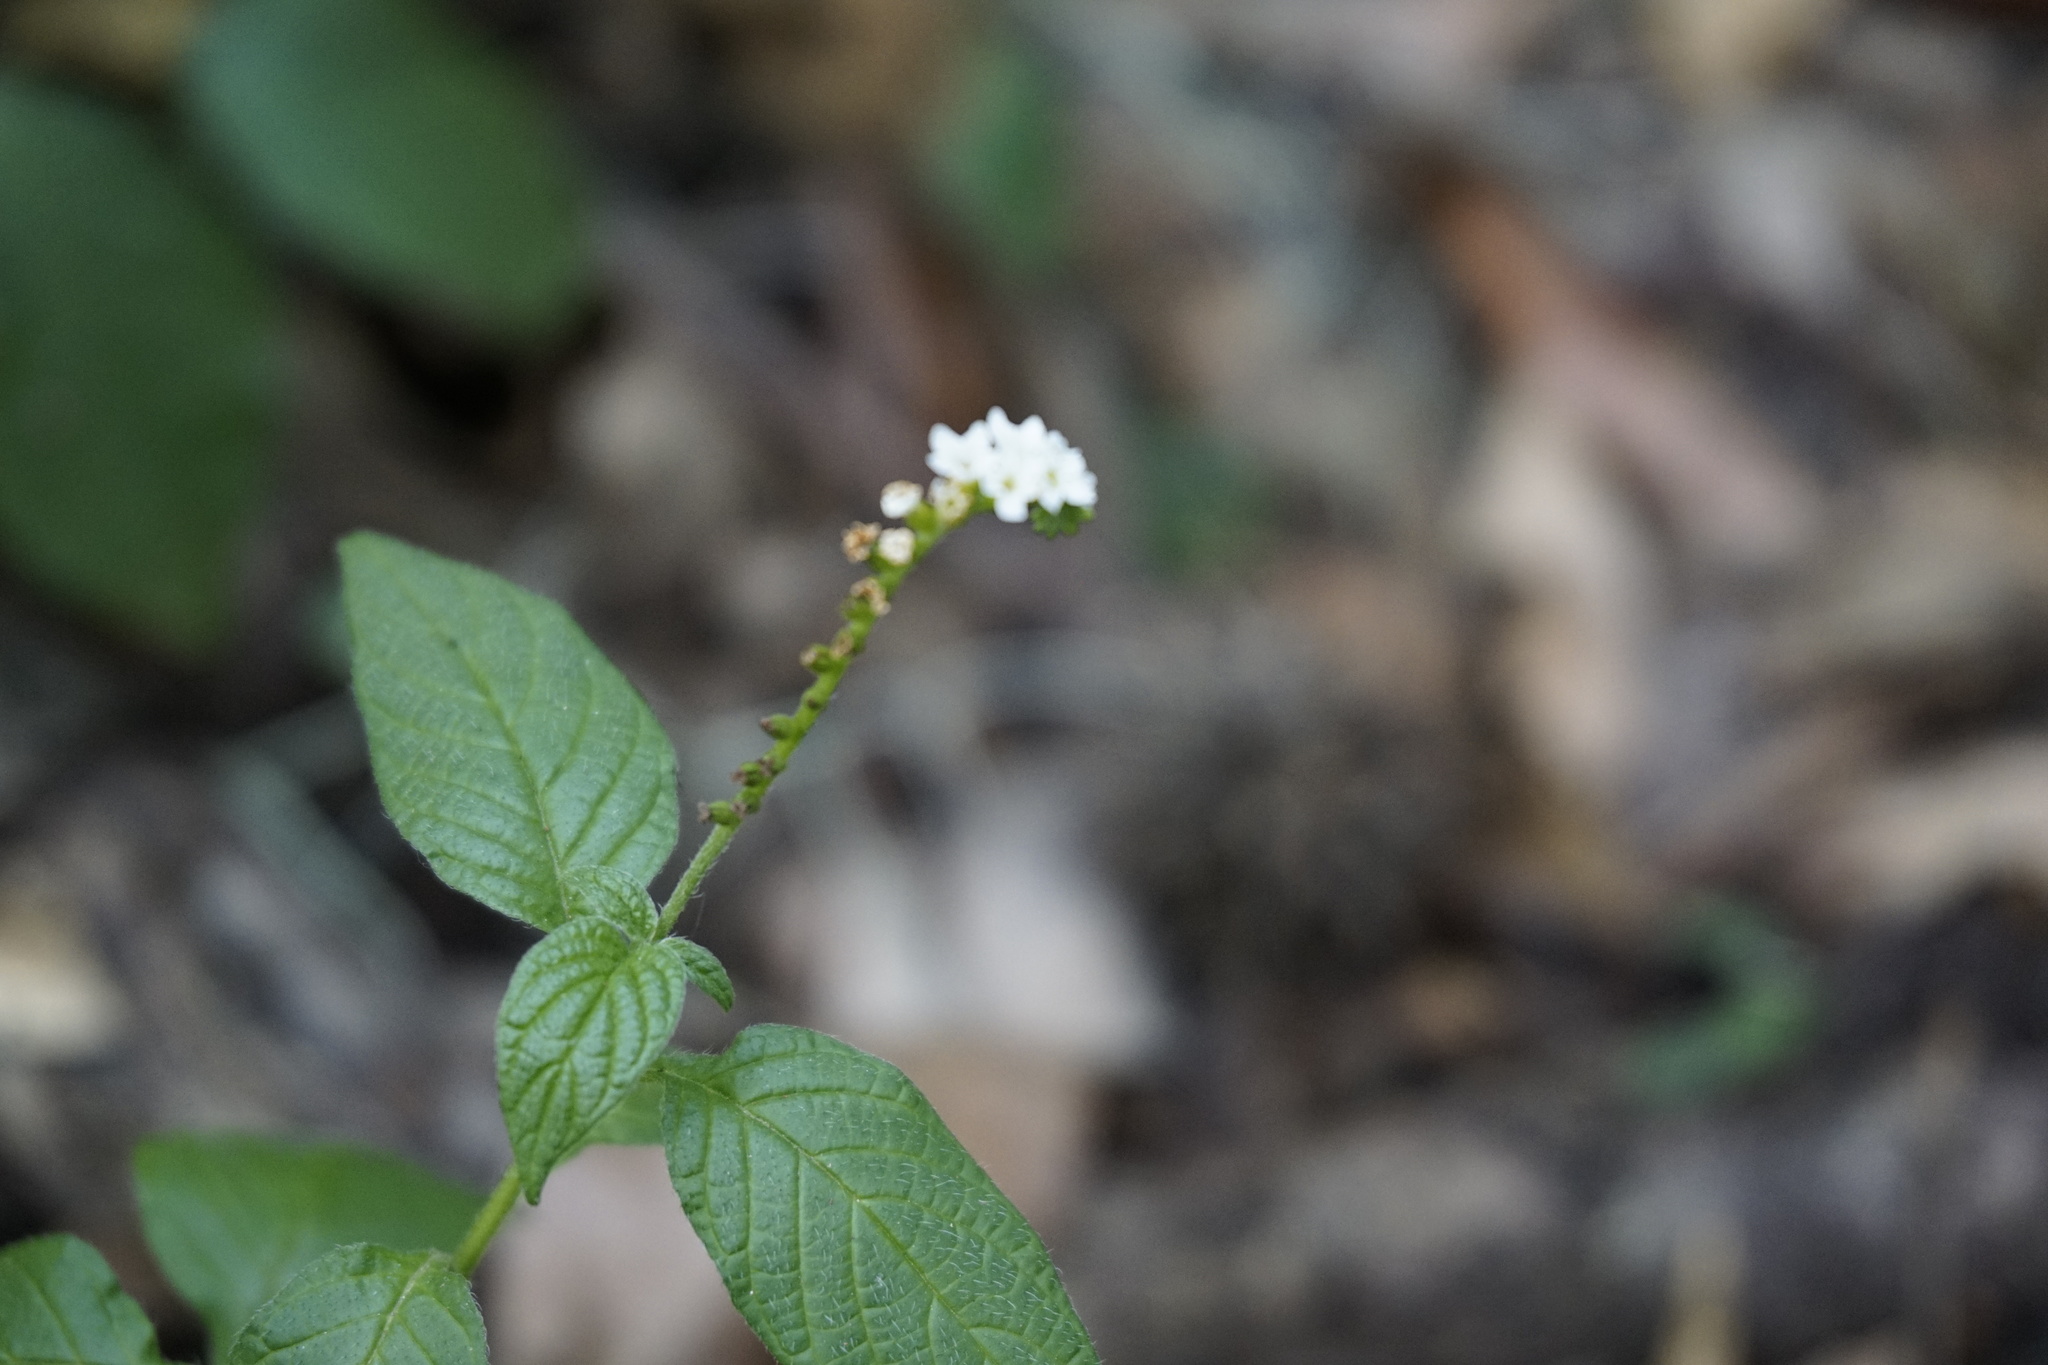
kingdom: Plantae
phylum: Tracheophyta
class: Magnoliopsida
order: Boraginales
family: Heliotropiaceae
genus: Heliotropium
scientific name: Heliotropium angiospermum
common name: Eye bright
